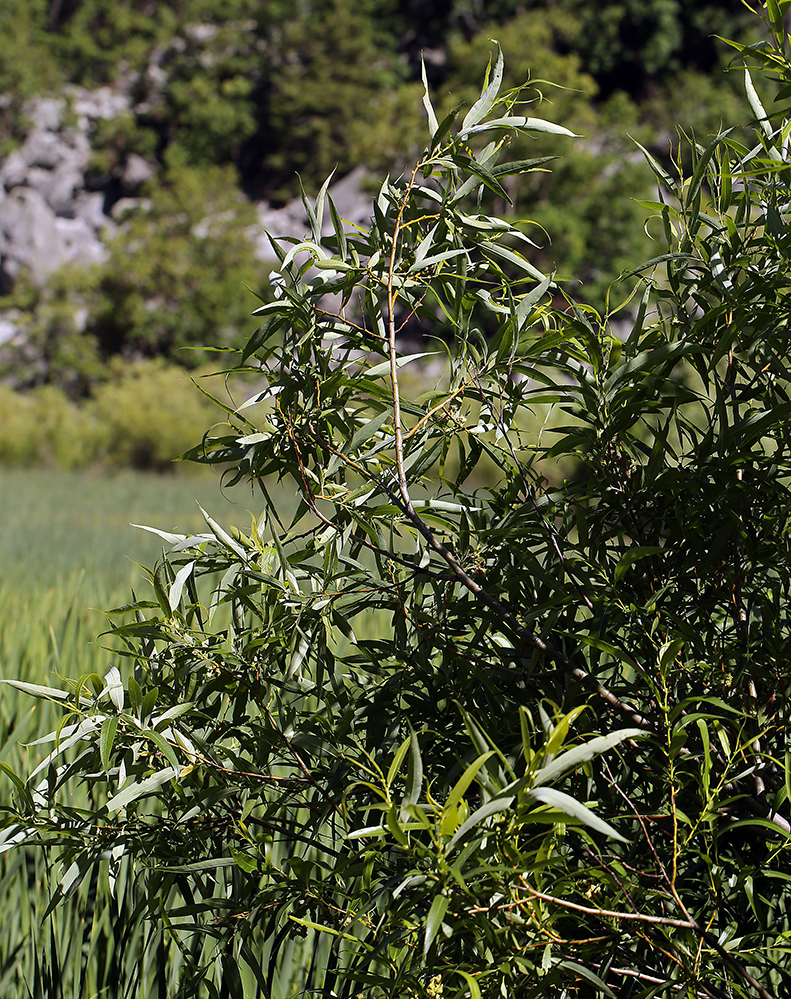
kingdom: Plantae
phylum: Tracheophyta
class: Magnoliopsida
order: Malpighiales
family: Salicaceae
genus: Salix
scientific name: Salix lucida
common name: Shining willow
